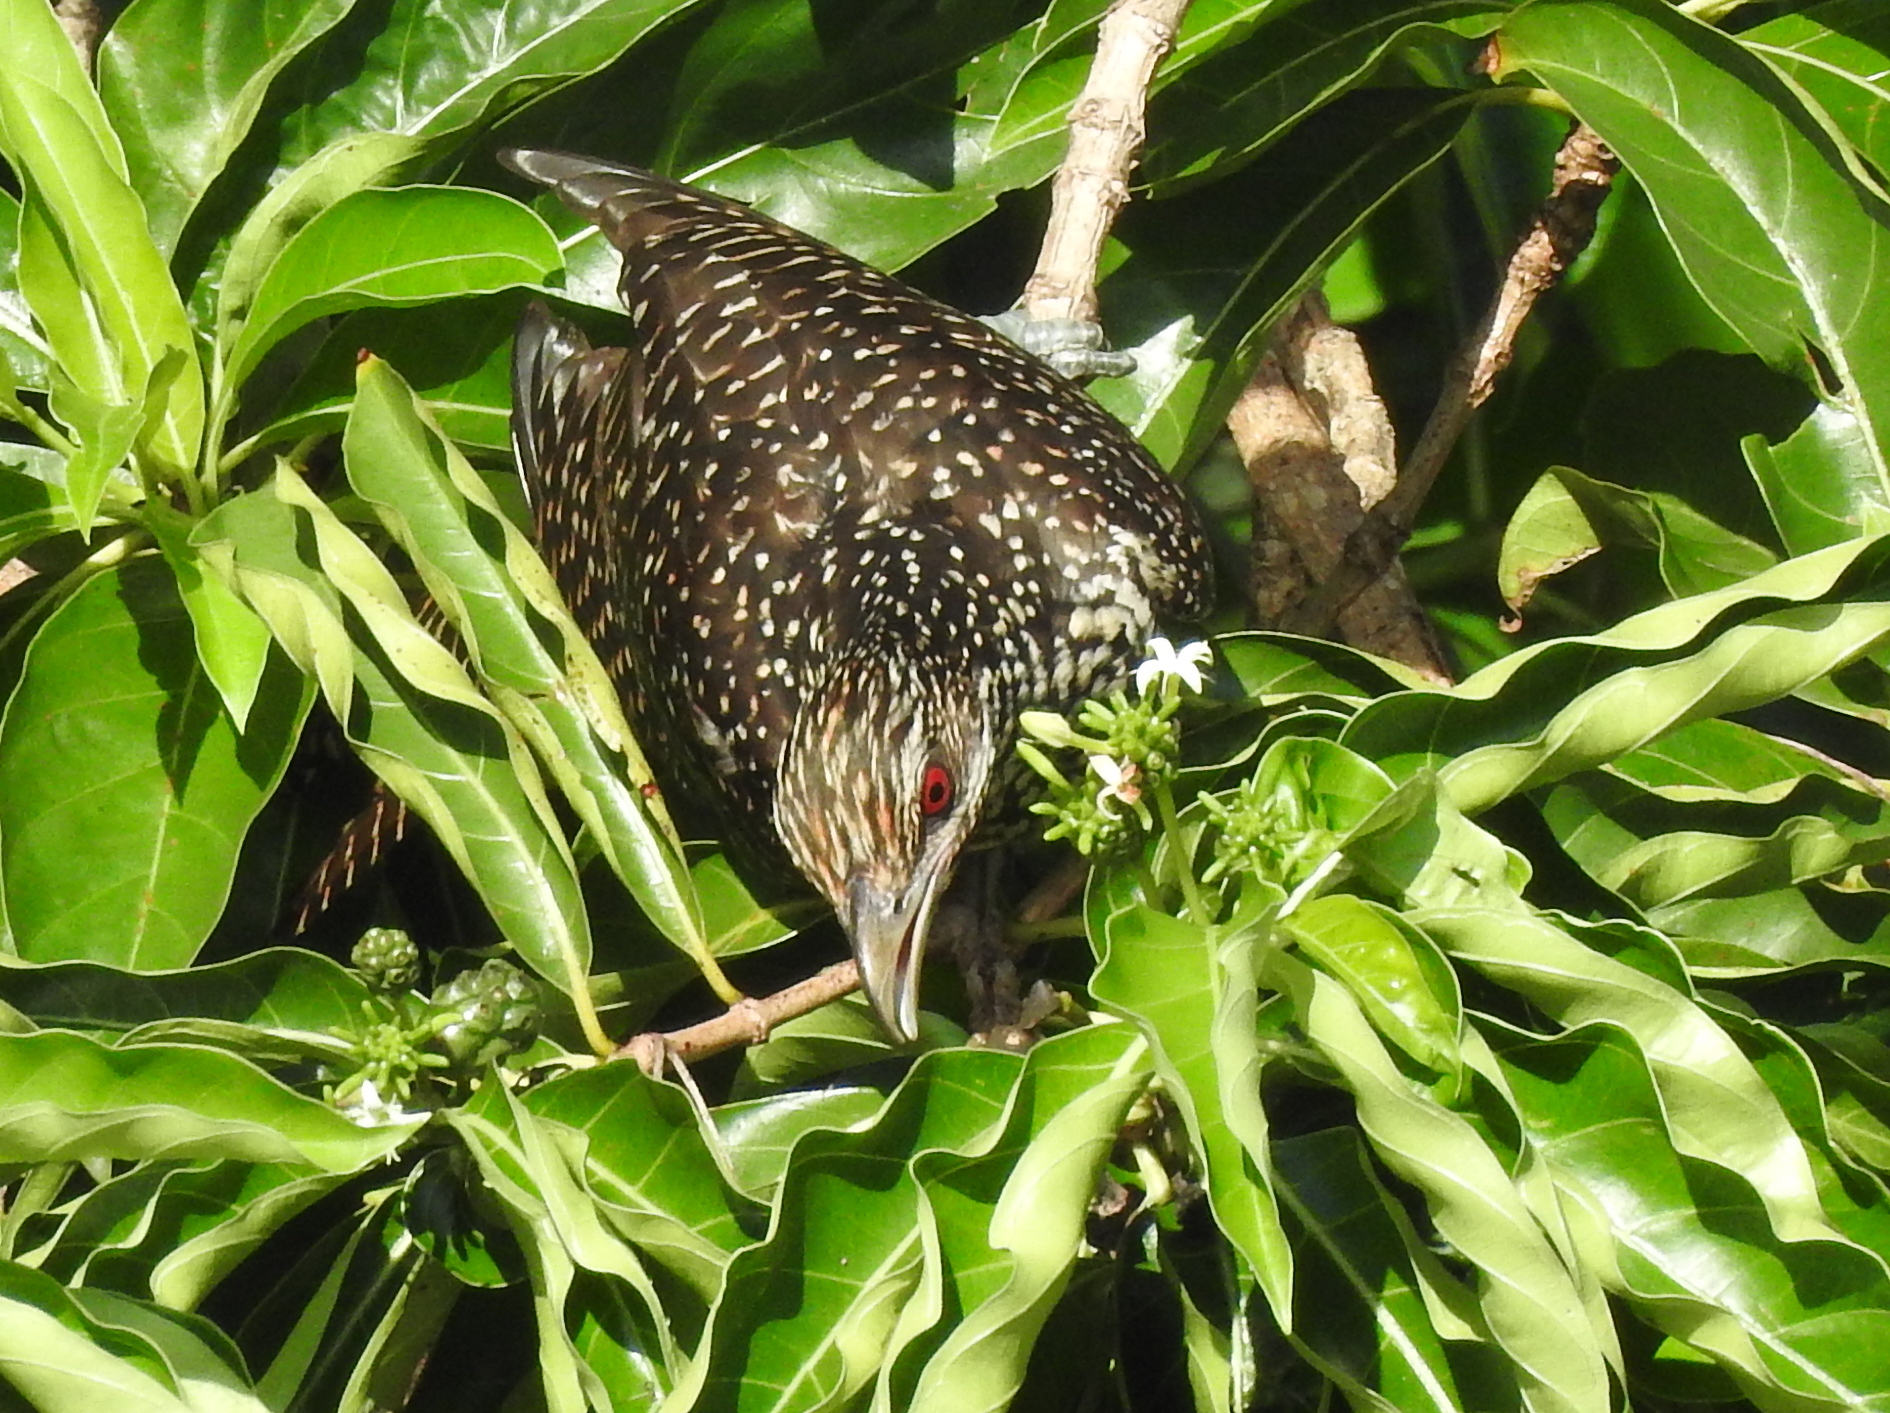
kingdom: Animalia
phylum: Chordata
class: Aves
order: Cuculiformes
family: Cuculidae
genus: Eudynamys
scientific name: Eudynamys scolopaceus
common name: Asian koel
